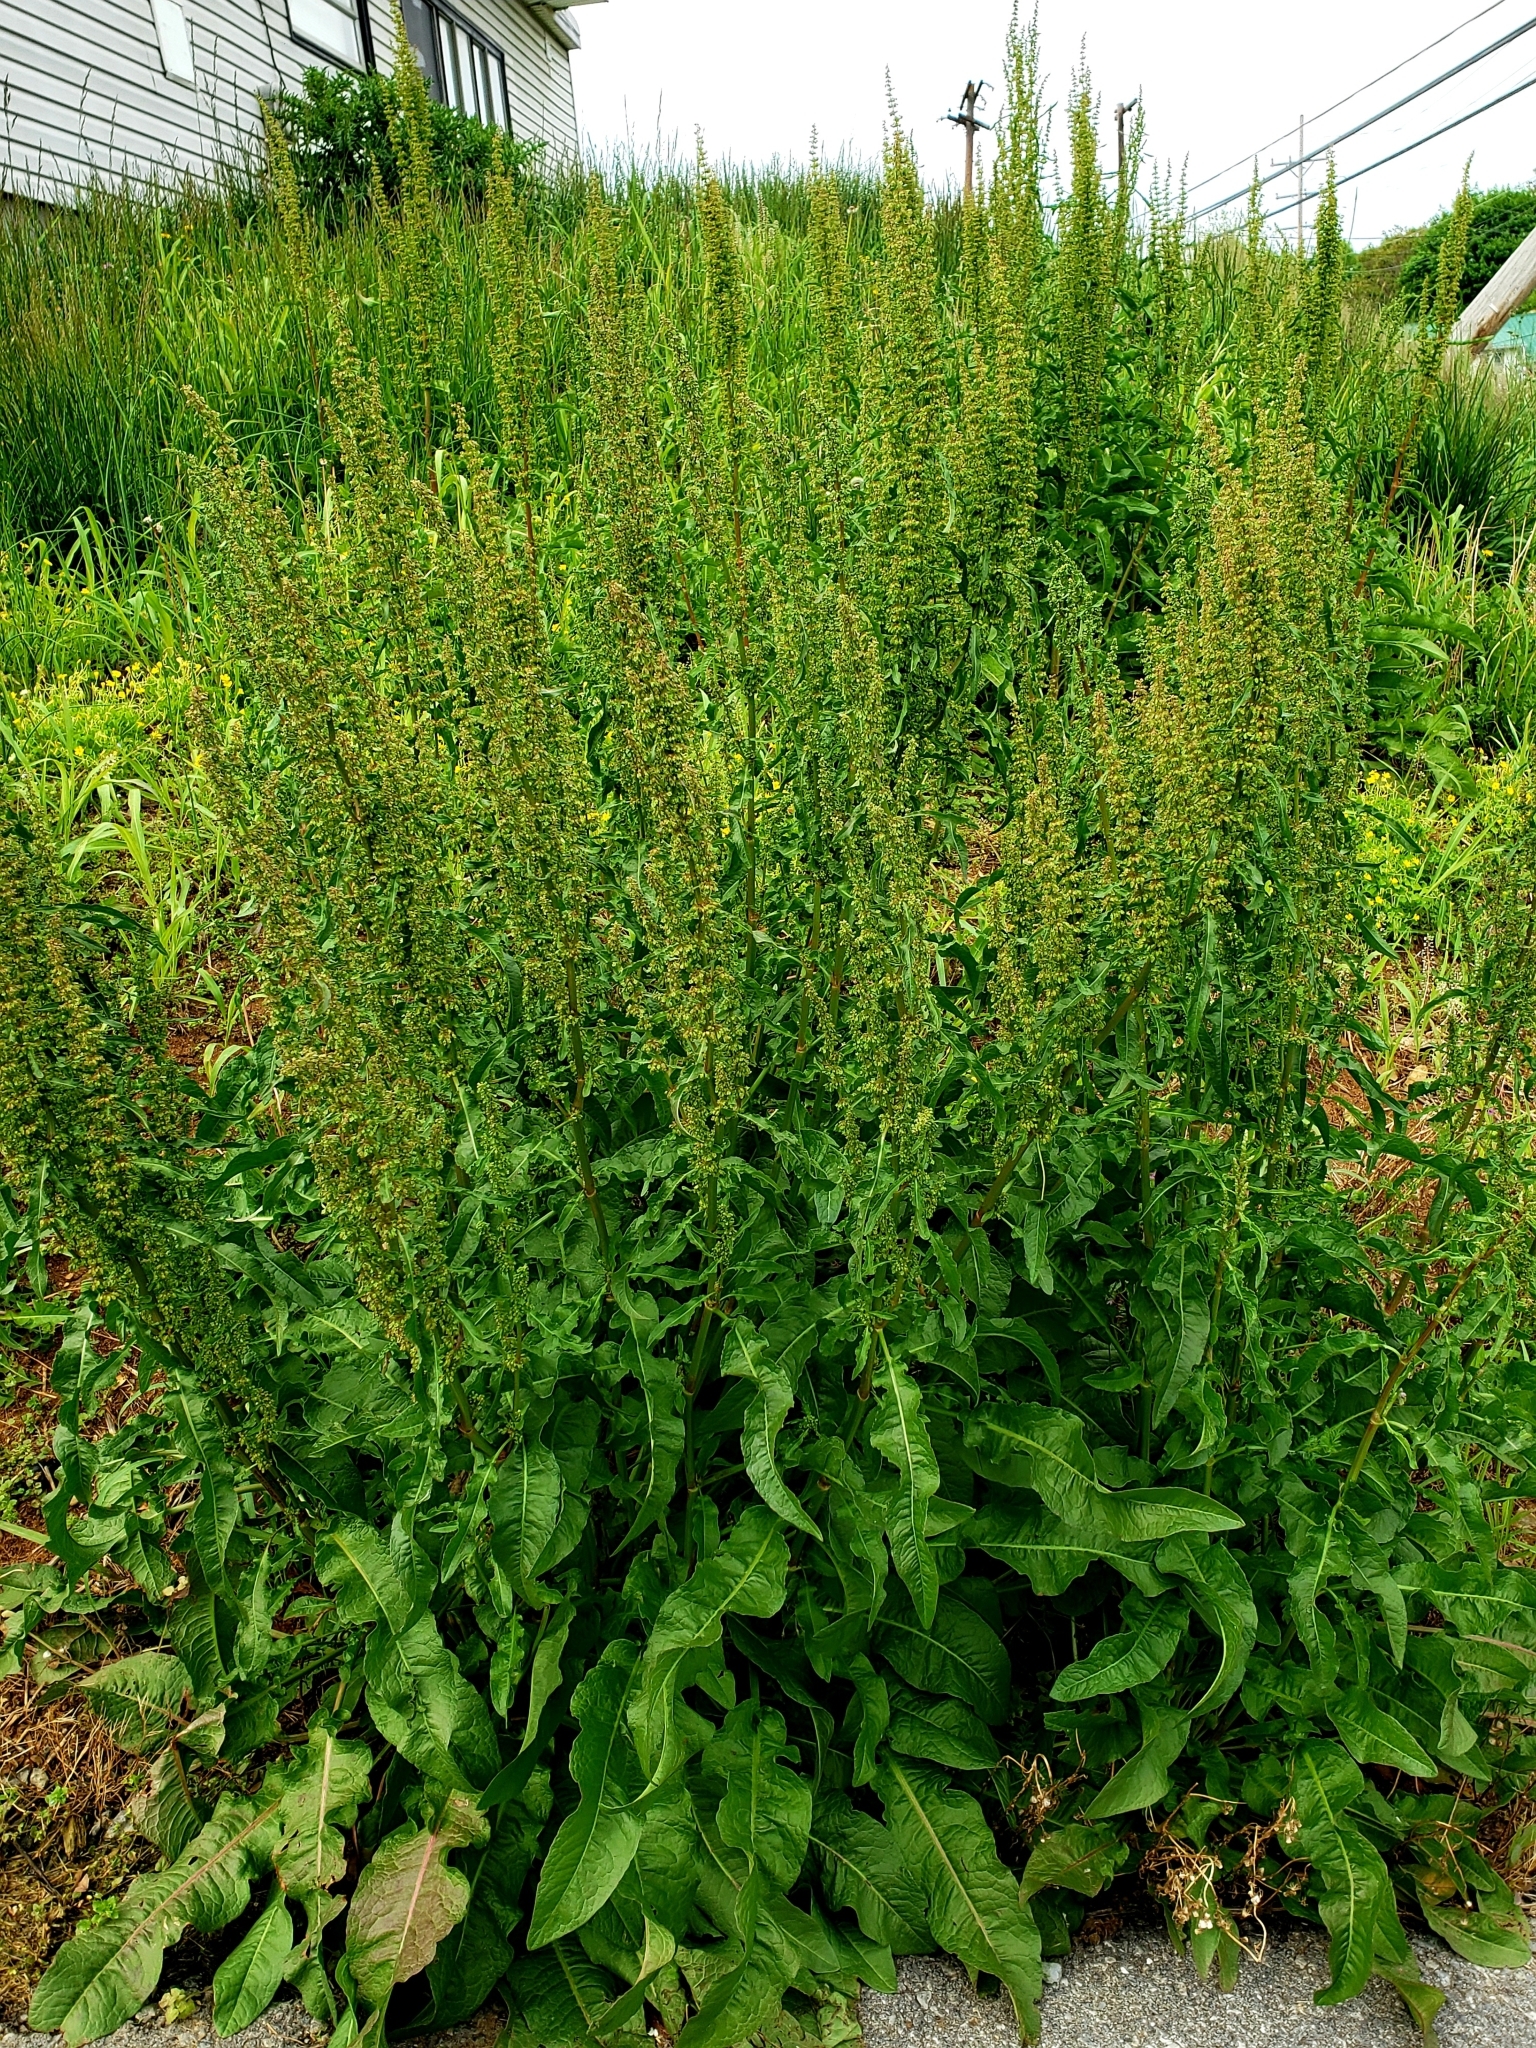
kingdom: Plantae
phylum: Tracheophyta
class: Magnoliopsida
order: Caryophyllales
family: Polygonaceae
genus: Rumex
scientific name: Rumex crispus
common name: Curled dock
